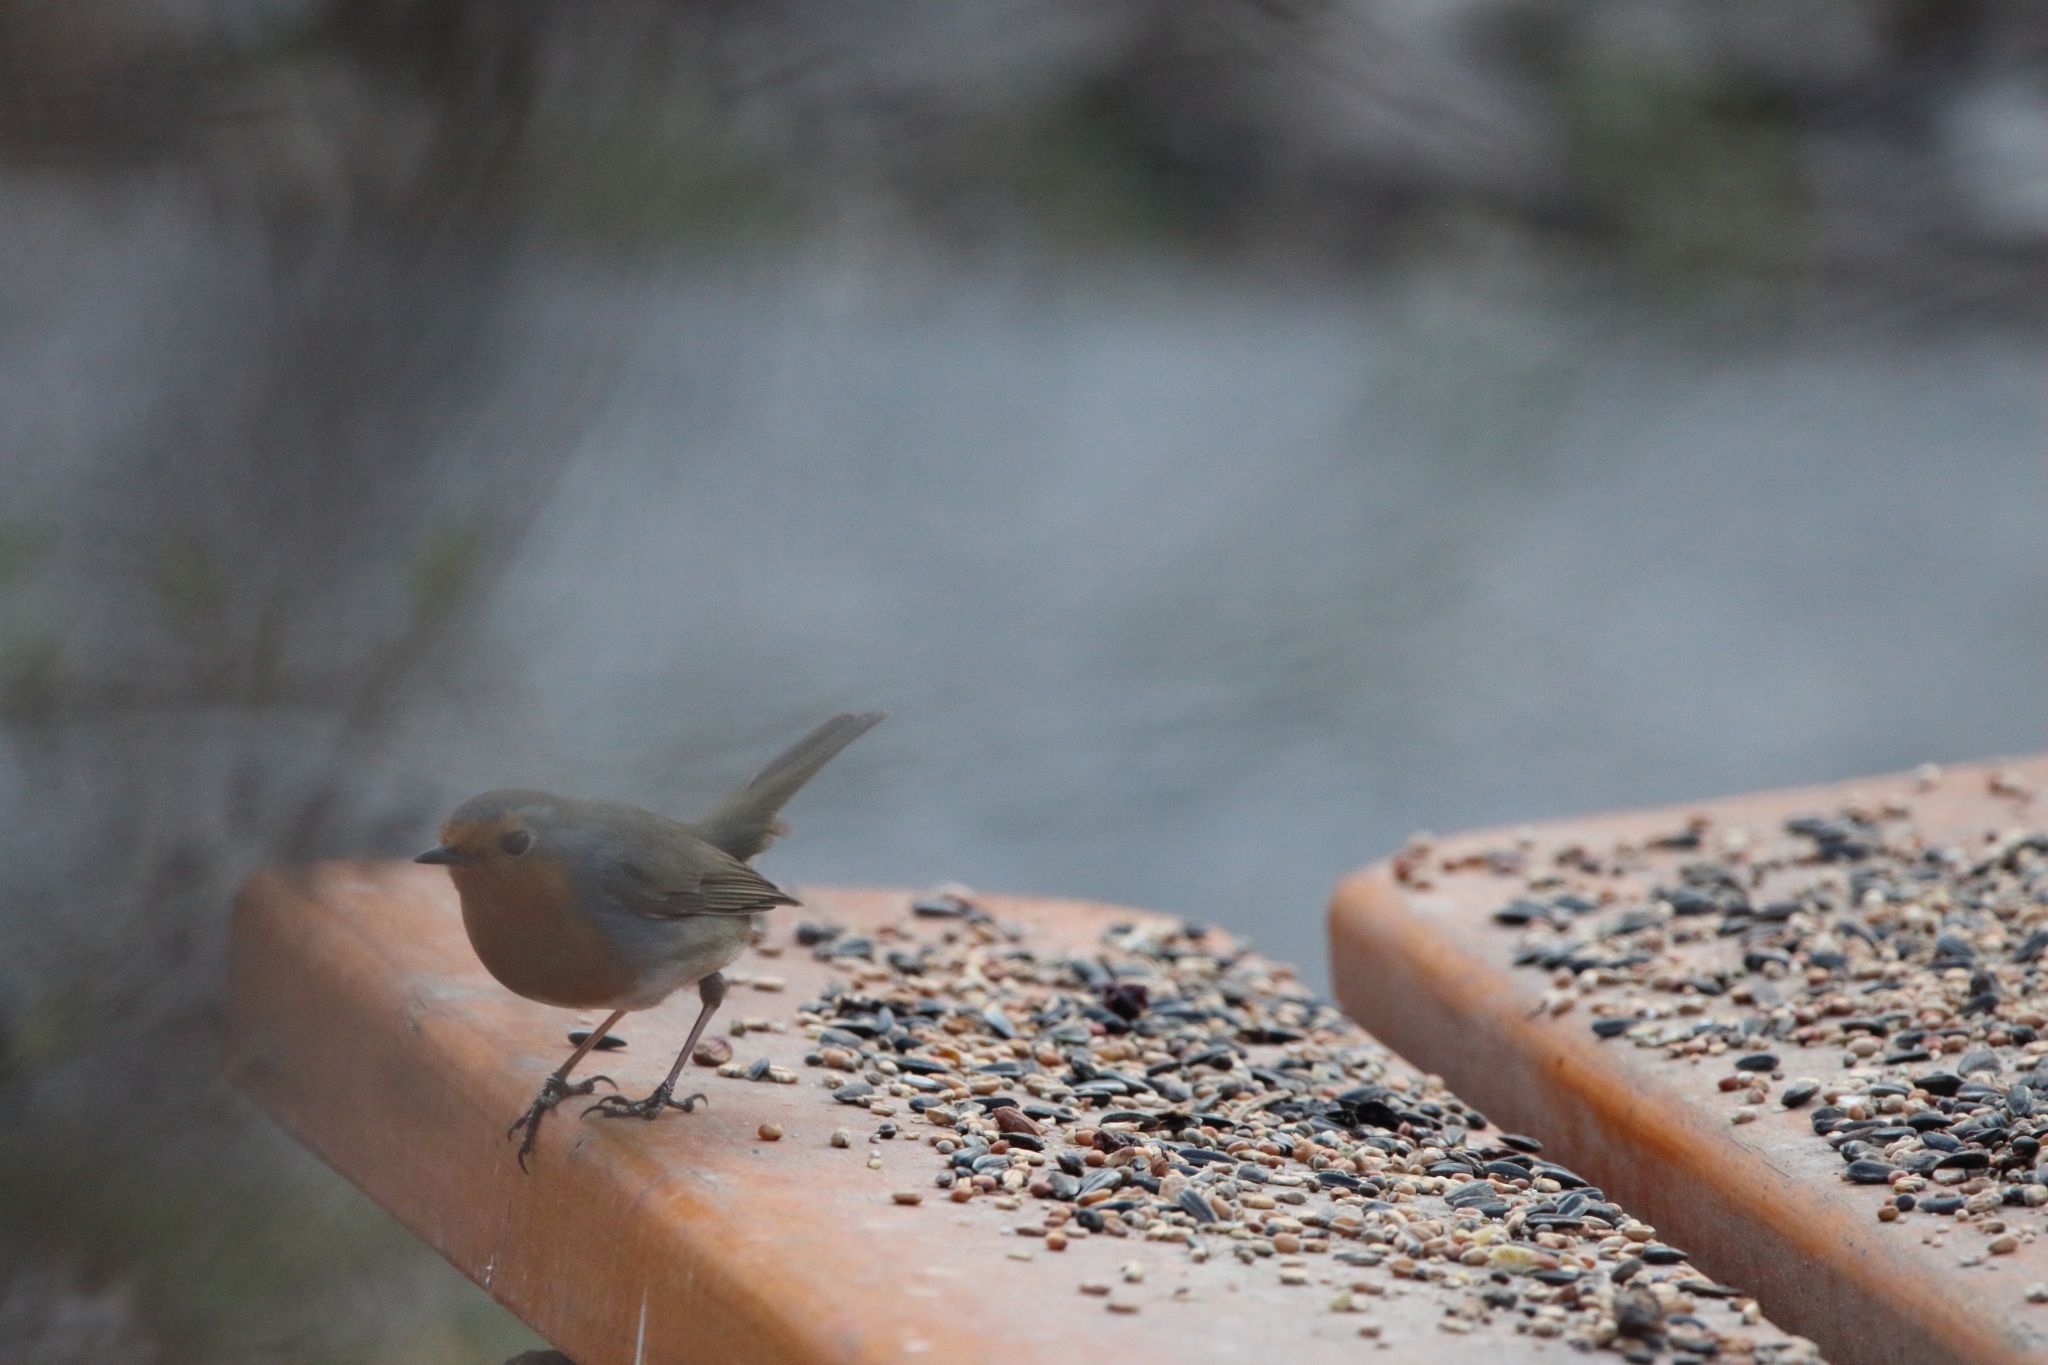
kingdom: Animalia
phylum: Chordata
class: Aves
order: Passeriformes
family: Muscicapidae
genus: Erithacus
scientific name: Erithacus rubecula
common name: European robin
